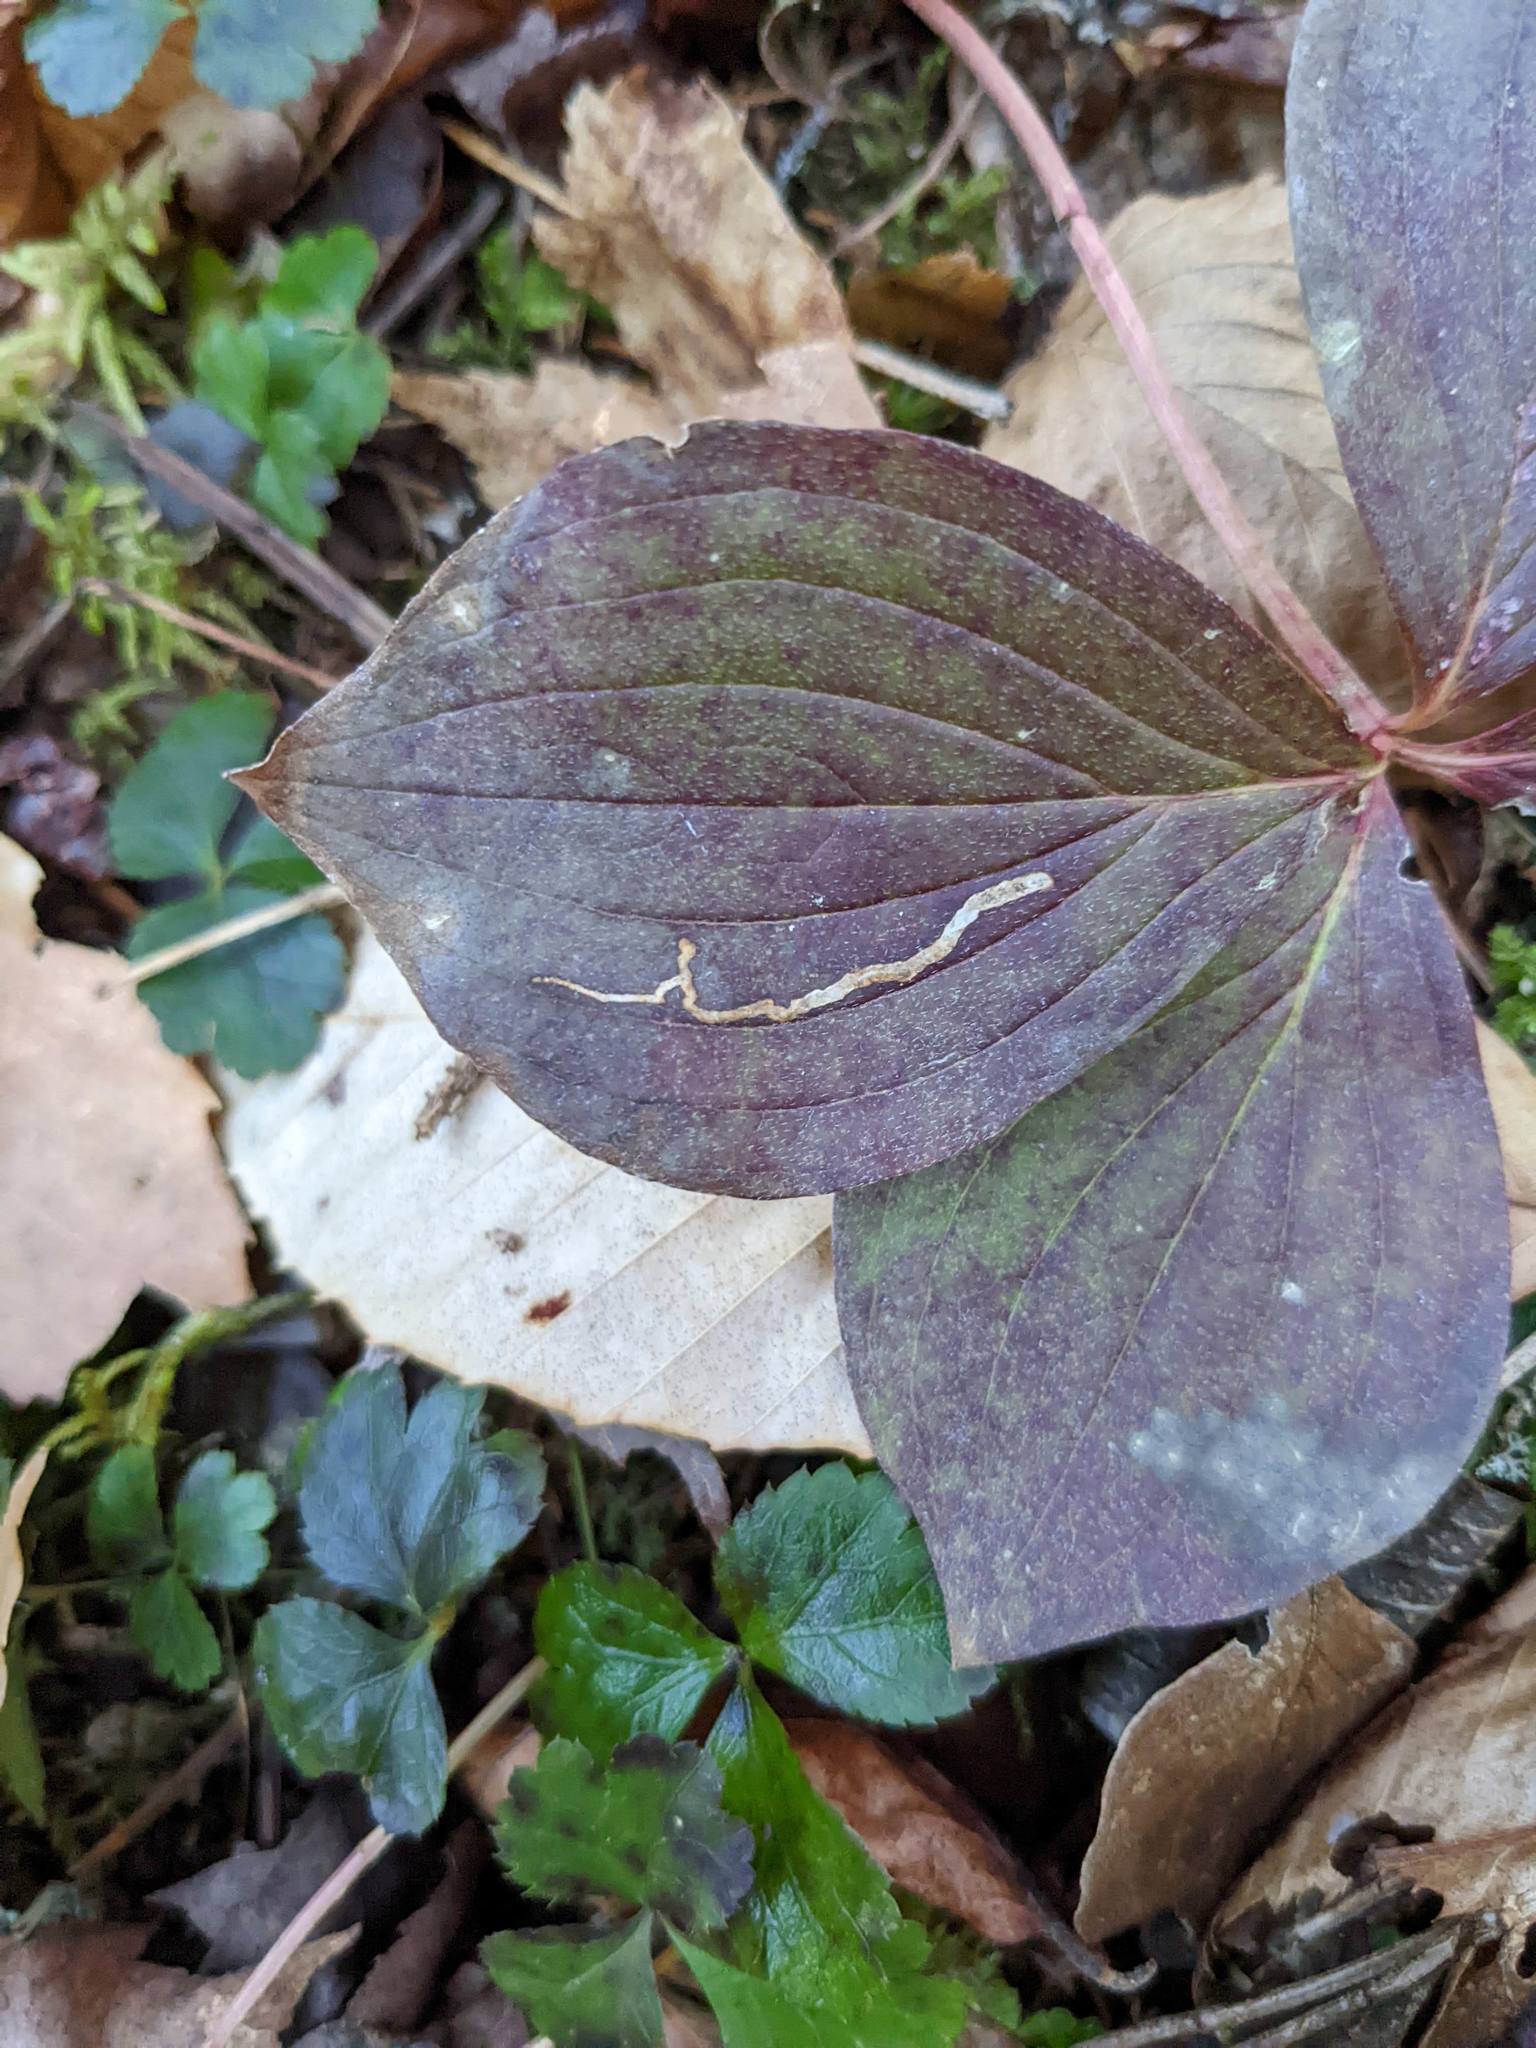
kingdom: Animalia
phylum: Arthropoda
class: Insecta
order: Diptera
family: Agromyzidae
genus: Phytomyza
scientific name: Phytomyza agromyzina
